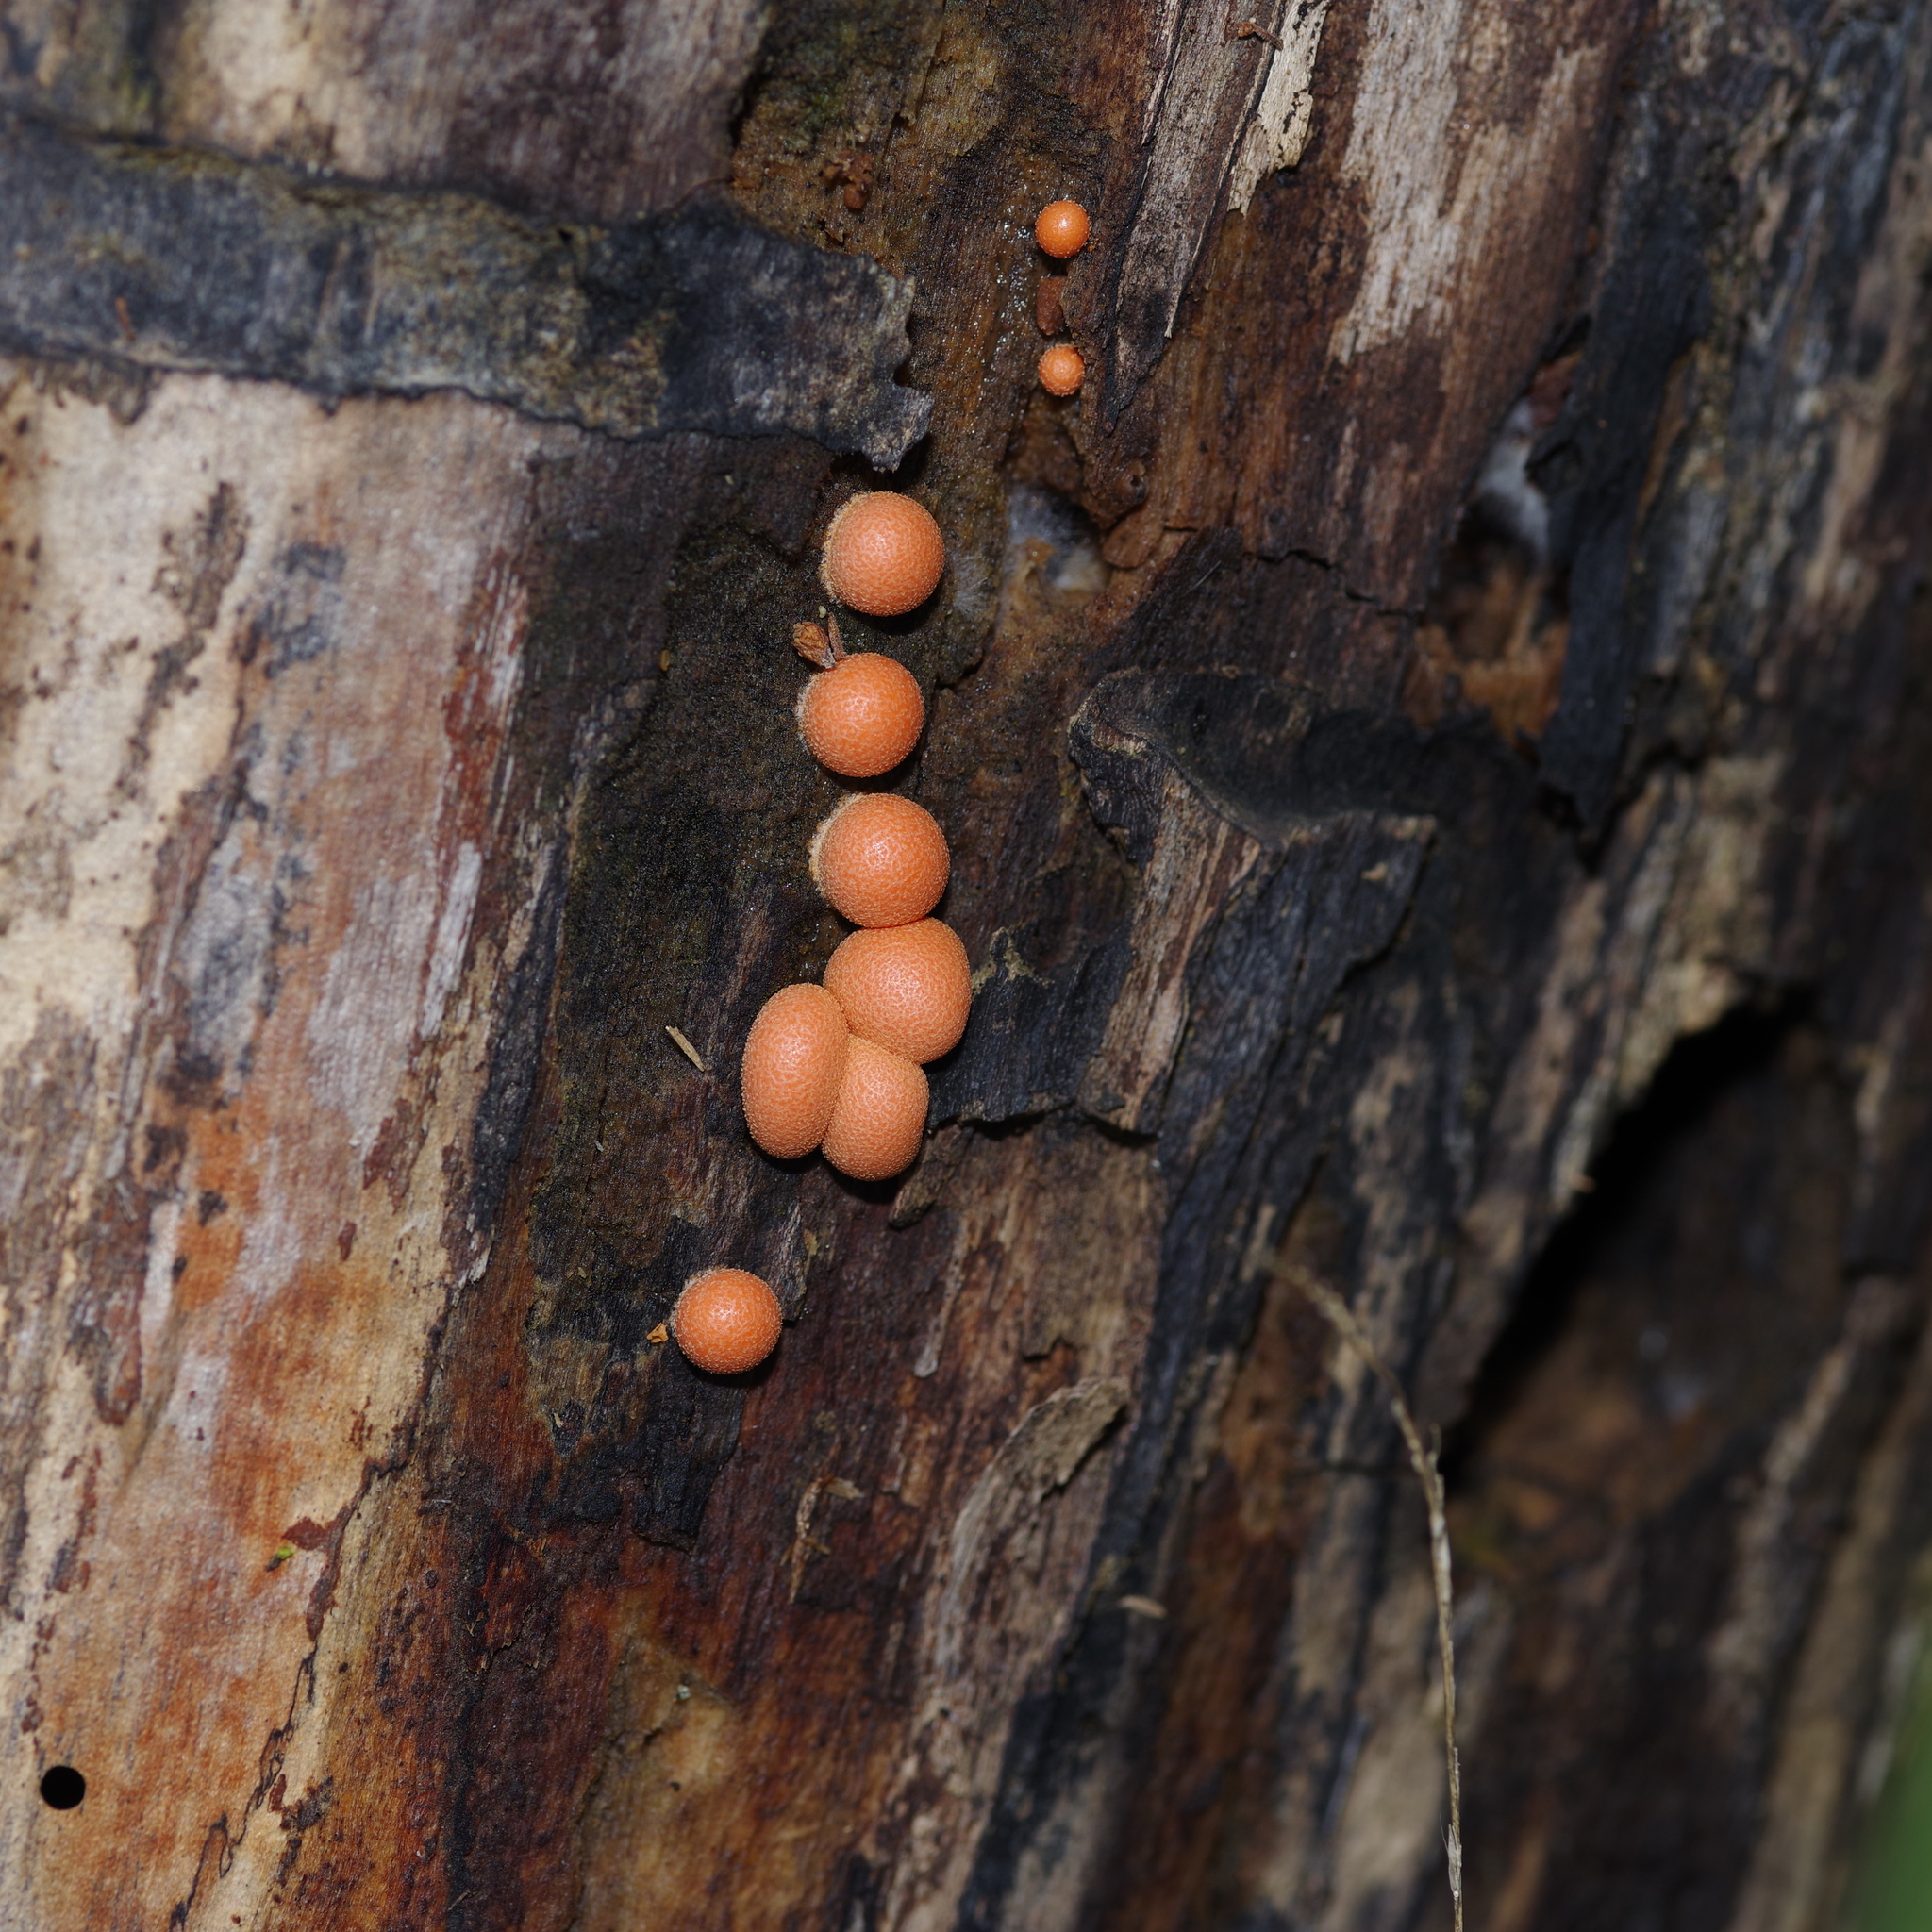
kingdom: Protozoa
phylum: Mycetozoa
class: Myxomycetes
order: Cribrariales
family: Tubiferaceae
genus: Lycogala
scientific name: Lycogala epidendrum
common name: Wolf's milk
